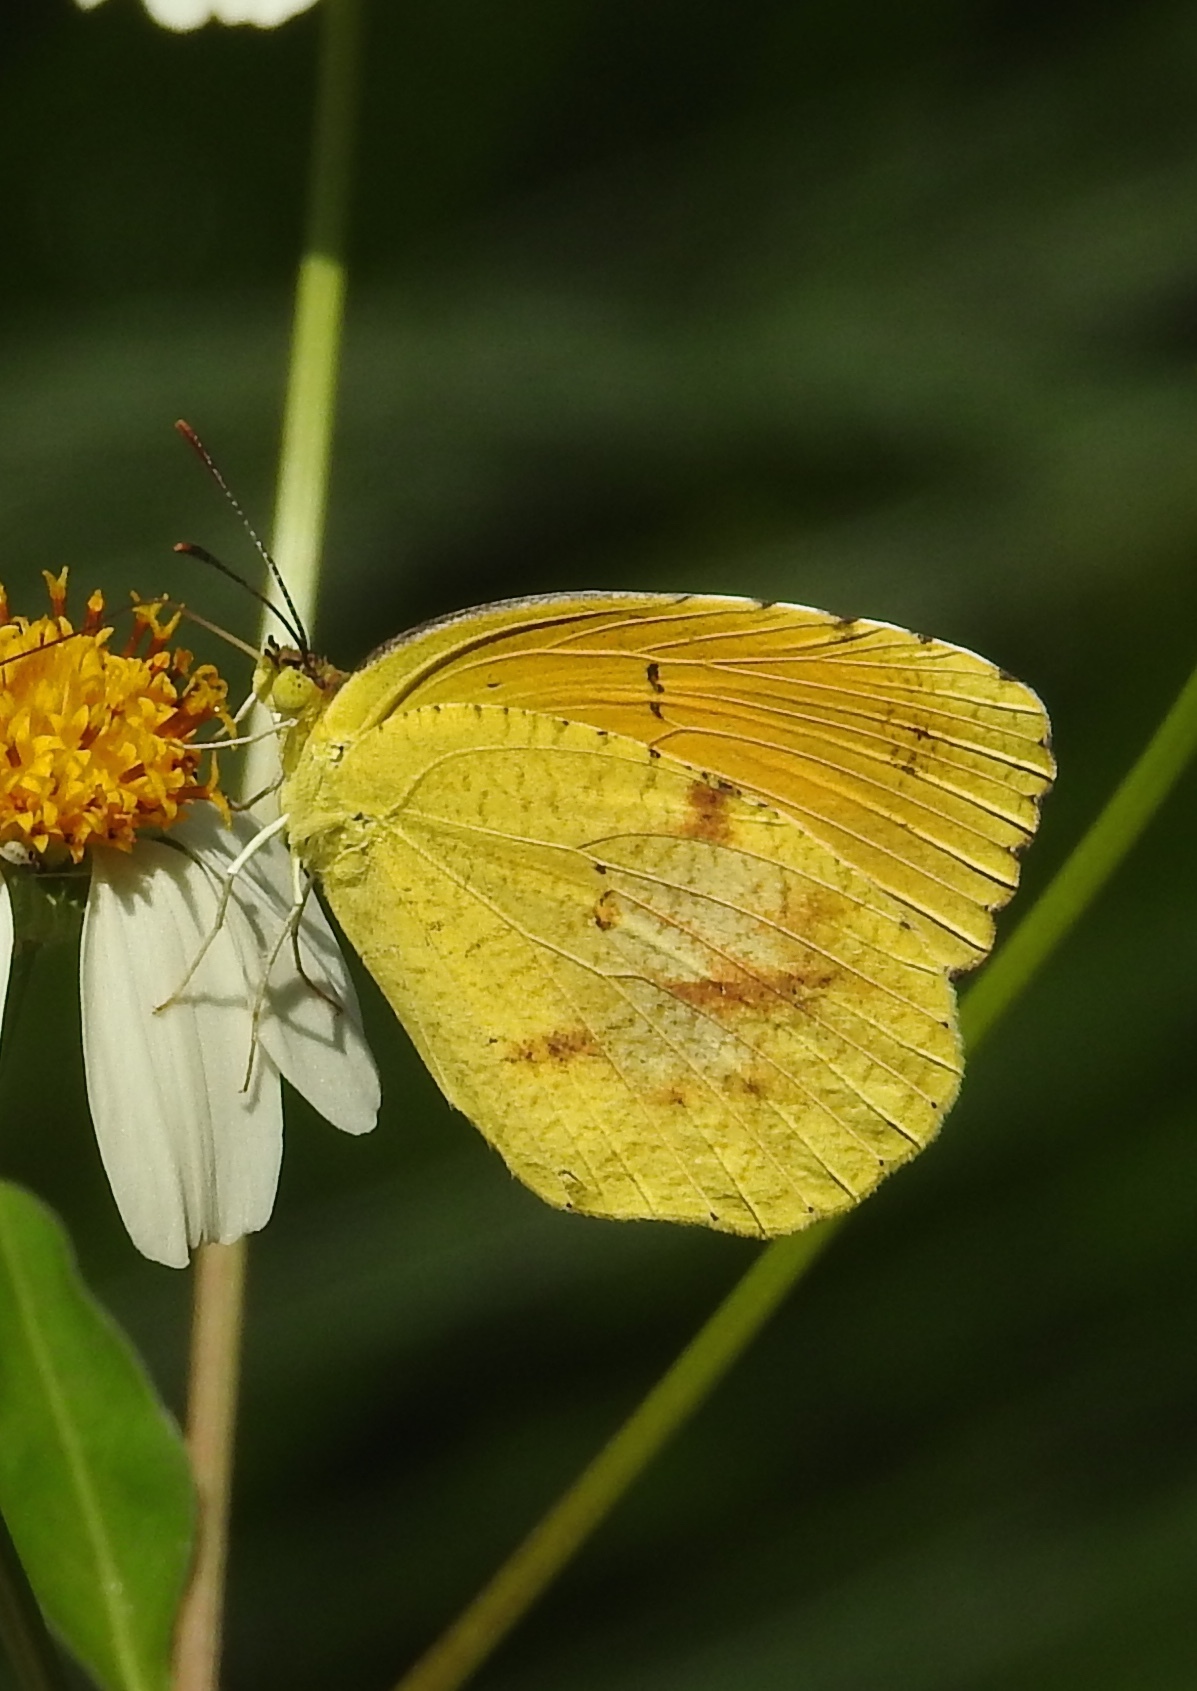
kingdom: Animalia
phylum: Arthropoda
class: Insecta
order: Lepidoptera
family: Pieridae
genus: Abaeis
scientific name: Abaeis nicippe
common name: Sleepy orange
